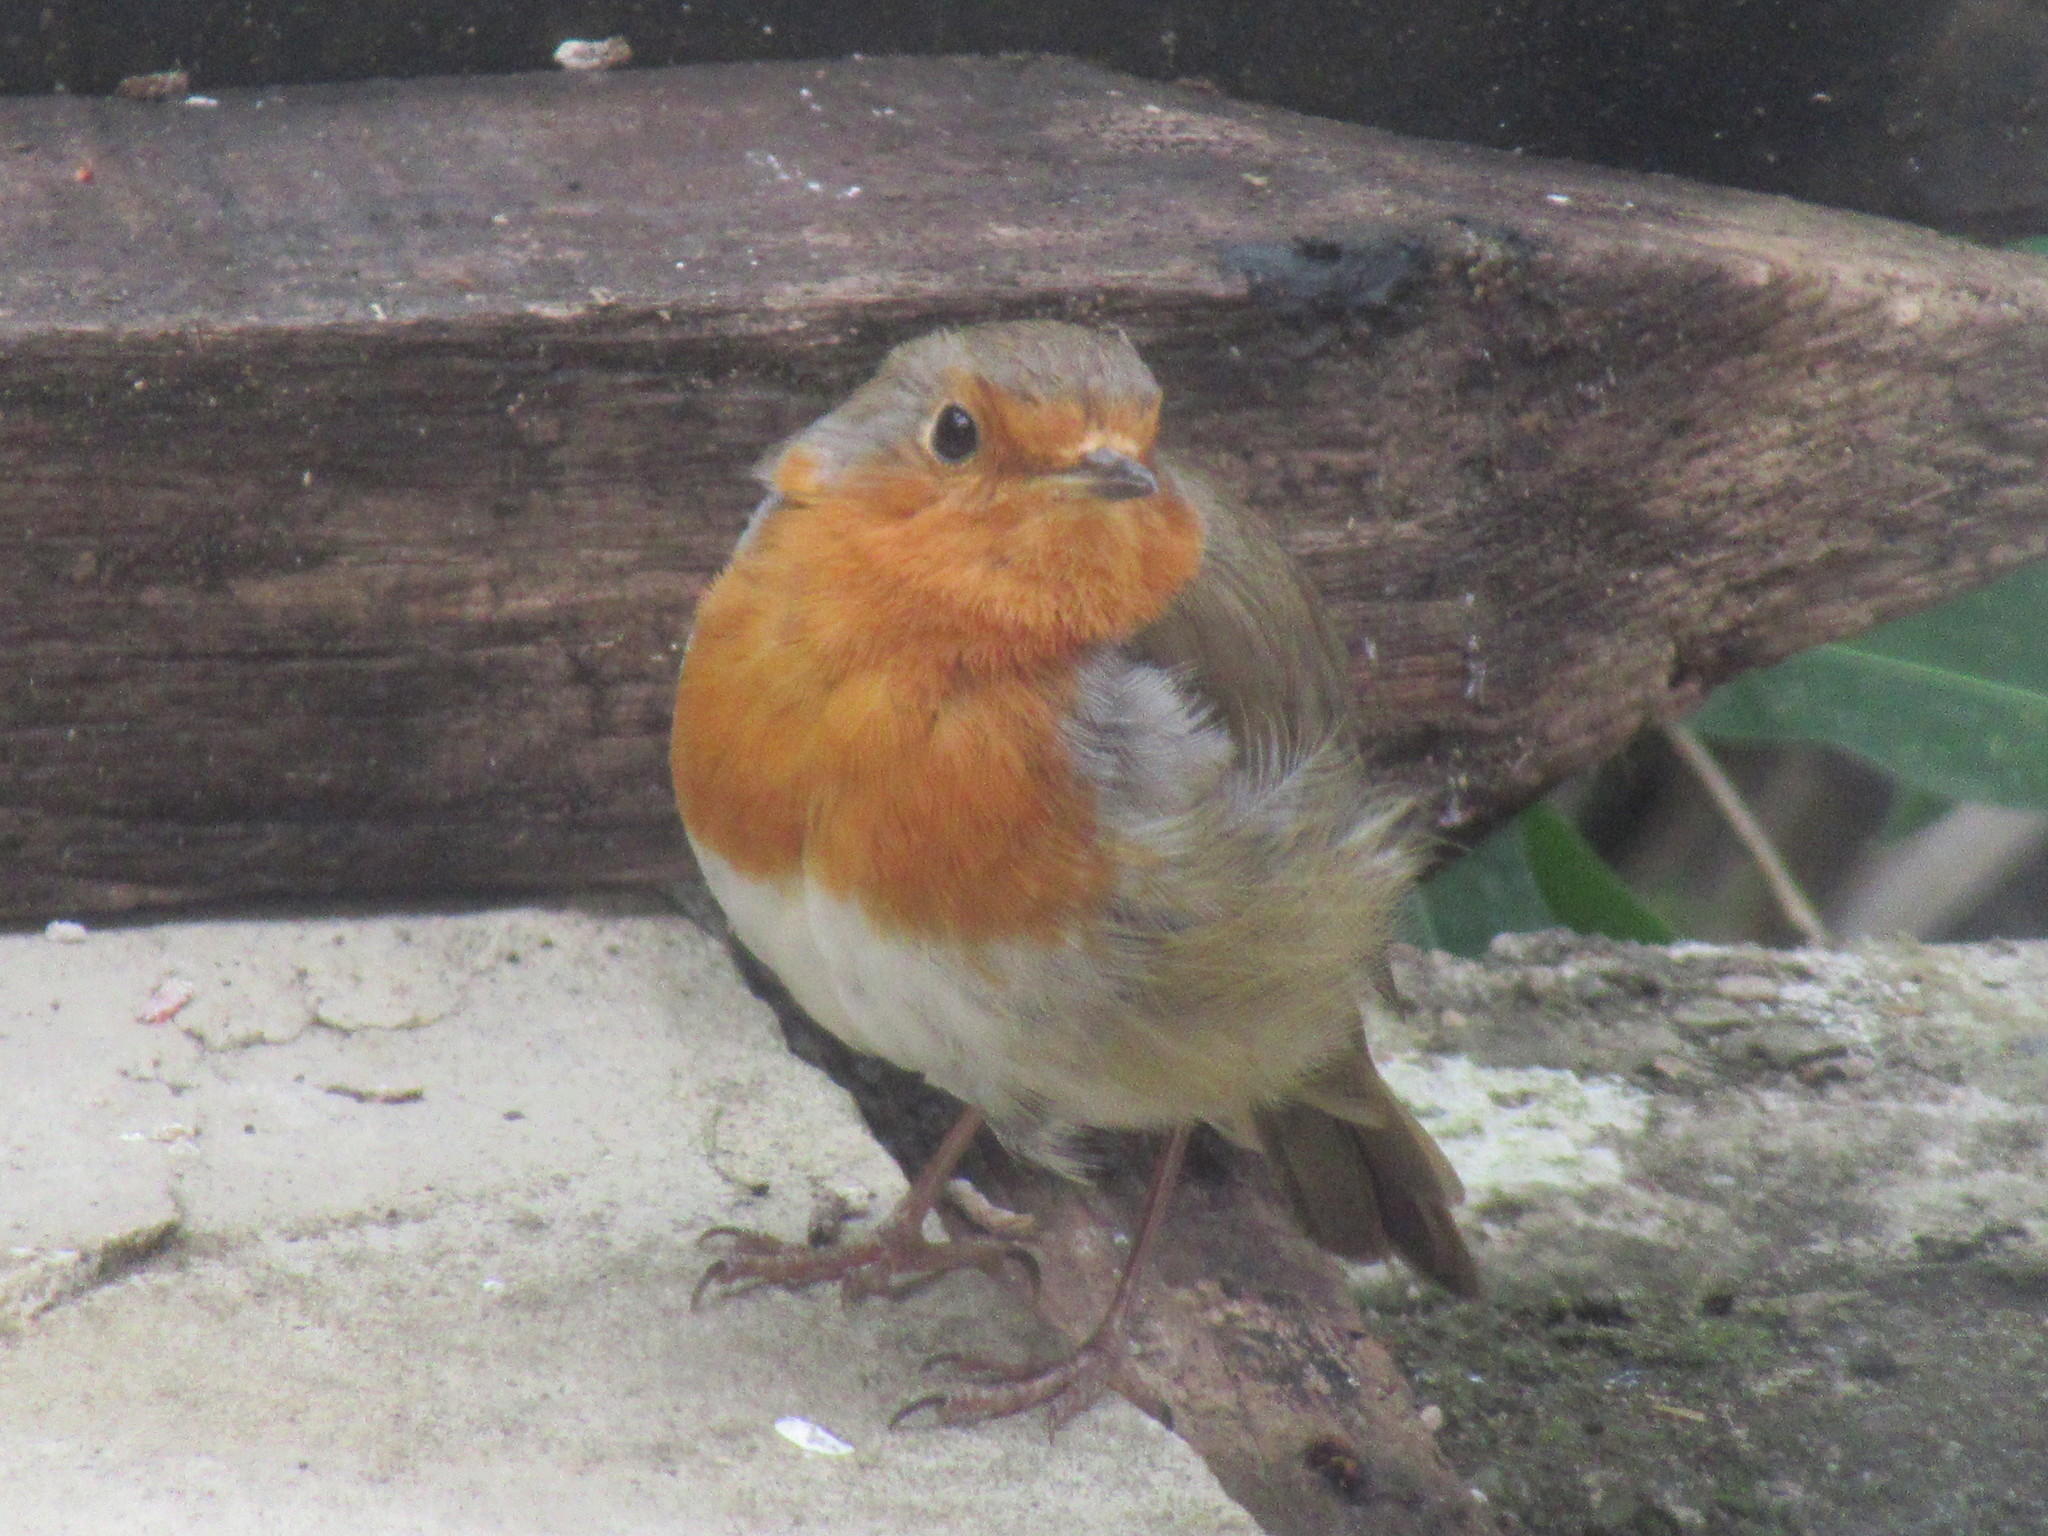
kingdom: Animalia
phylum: Chordata
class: Aves
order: Passeriformes
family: Muscicapidae
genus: Erithacus
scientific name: Erithacus rubecula
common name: European robin
